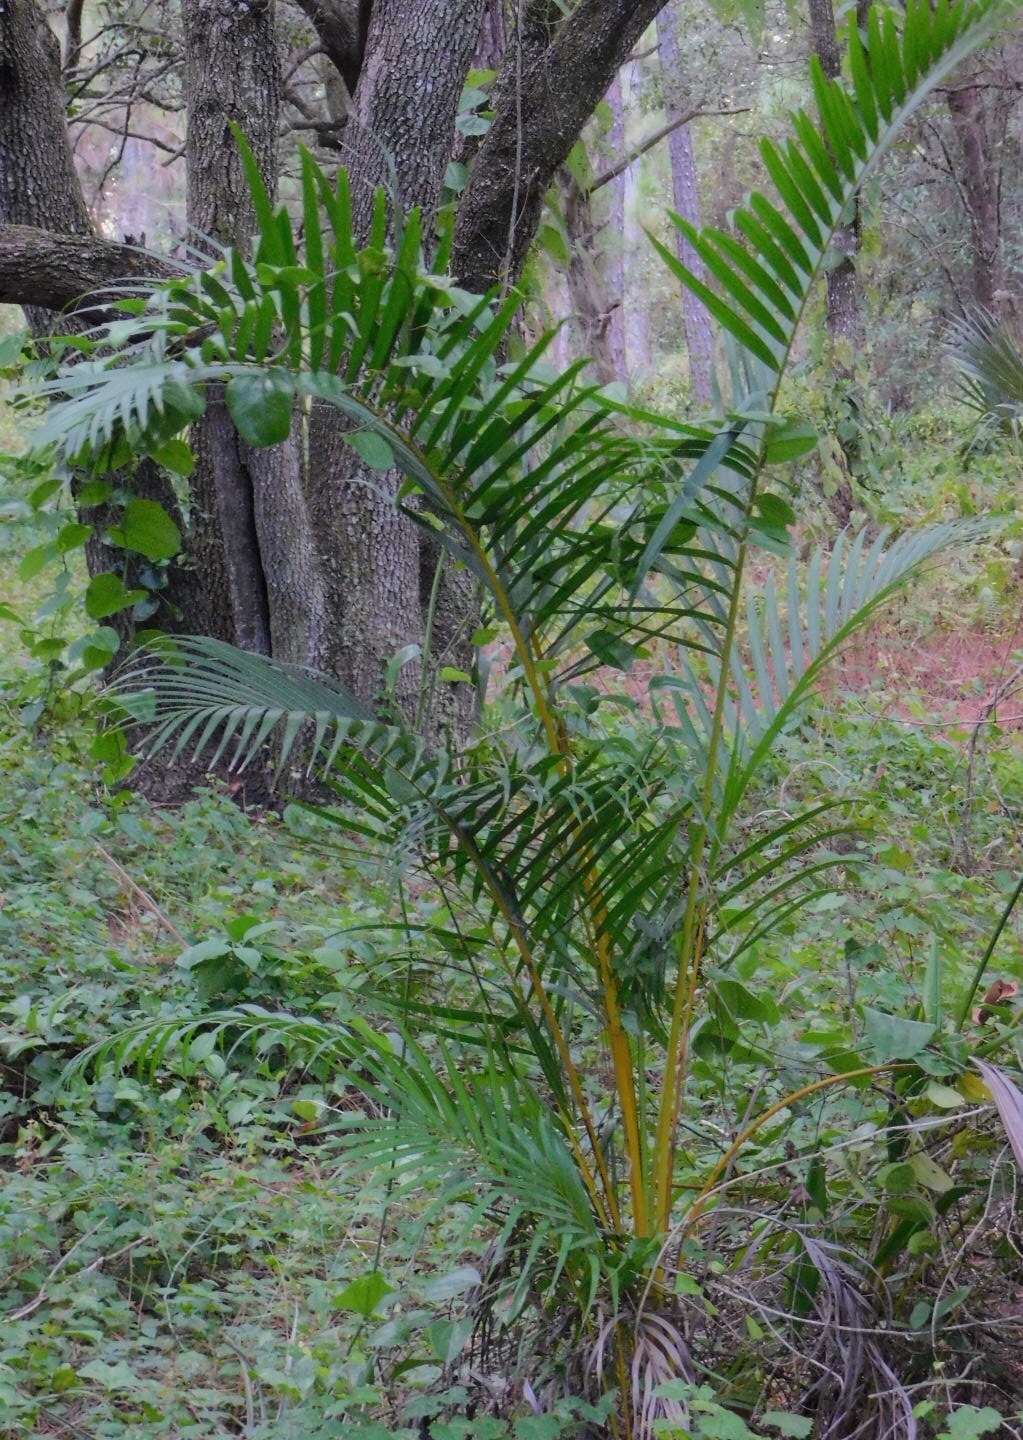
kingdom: Plantae
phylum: Tracheophyta
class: Liliopsida
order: Arecales
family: Arecaceae
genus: Dypsis
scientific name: Dypsis lutescens
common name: Yellow butterfly palm
